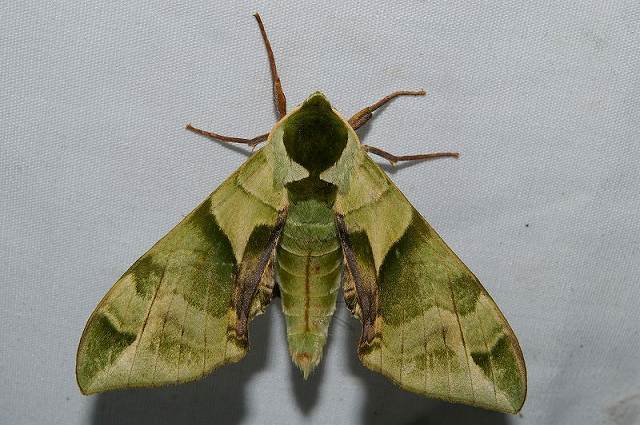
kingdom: Animalia
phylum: Arthropoda
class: Insecta
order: Lepidoptera
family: Sphingidae
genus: Callambulyx
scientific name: Callambulyx tatarinovii
